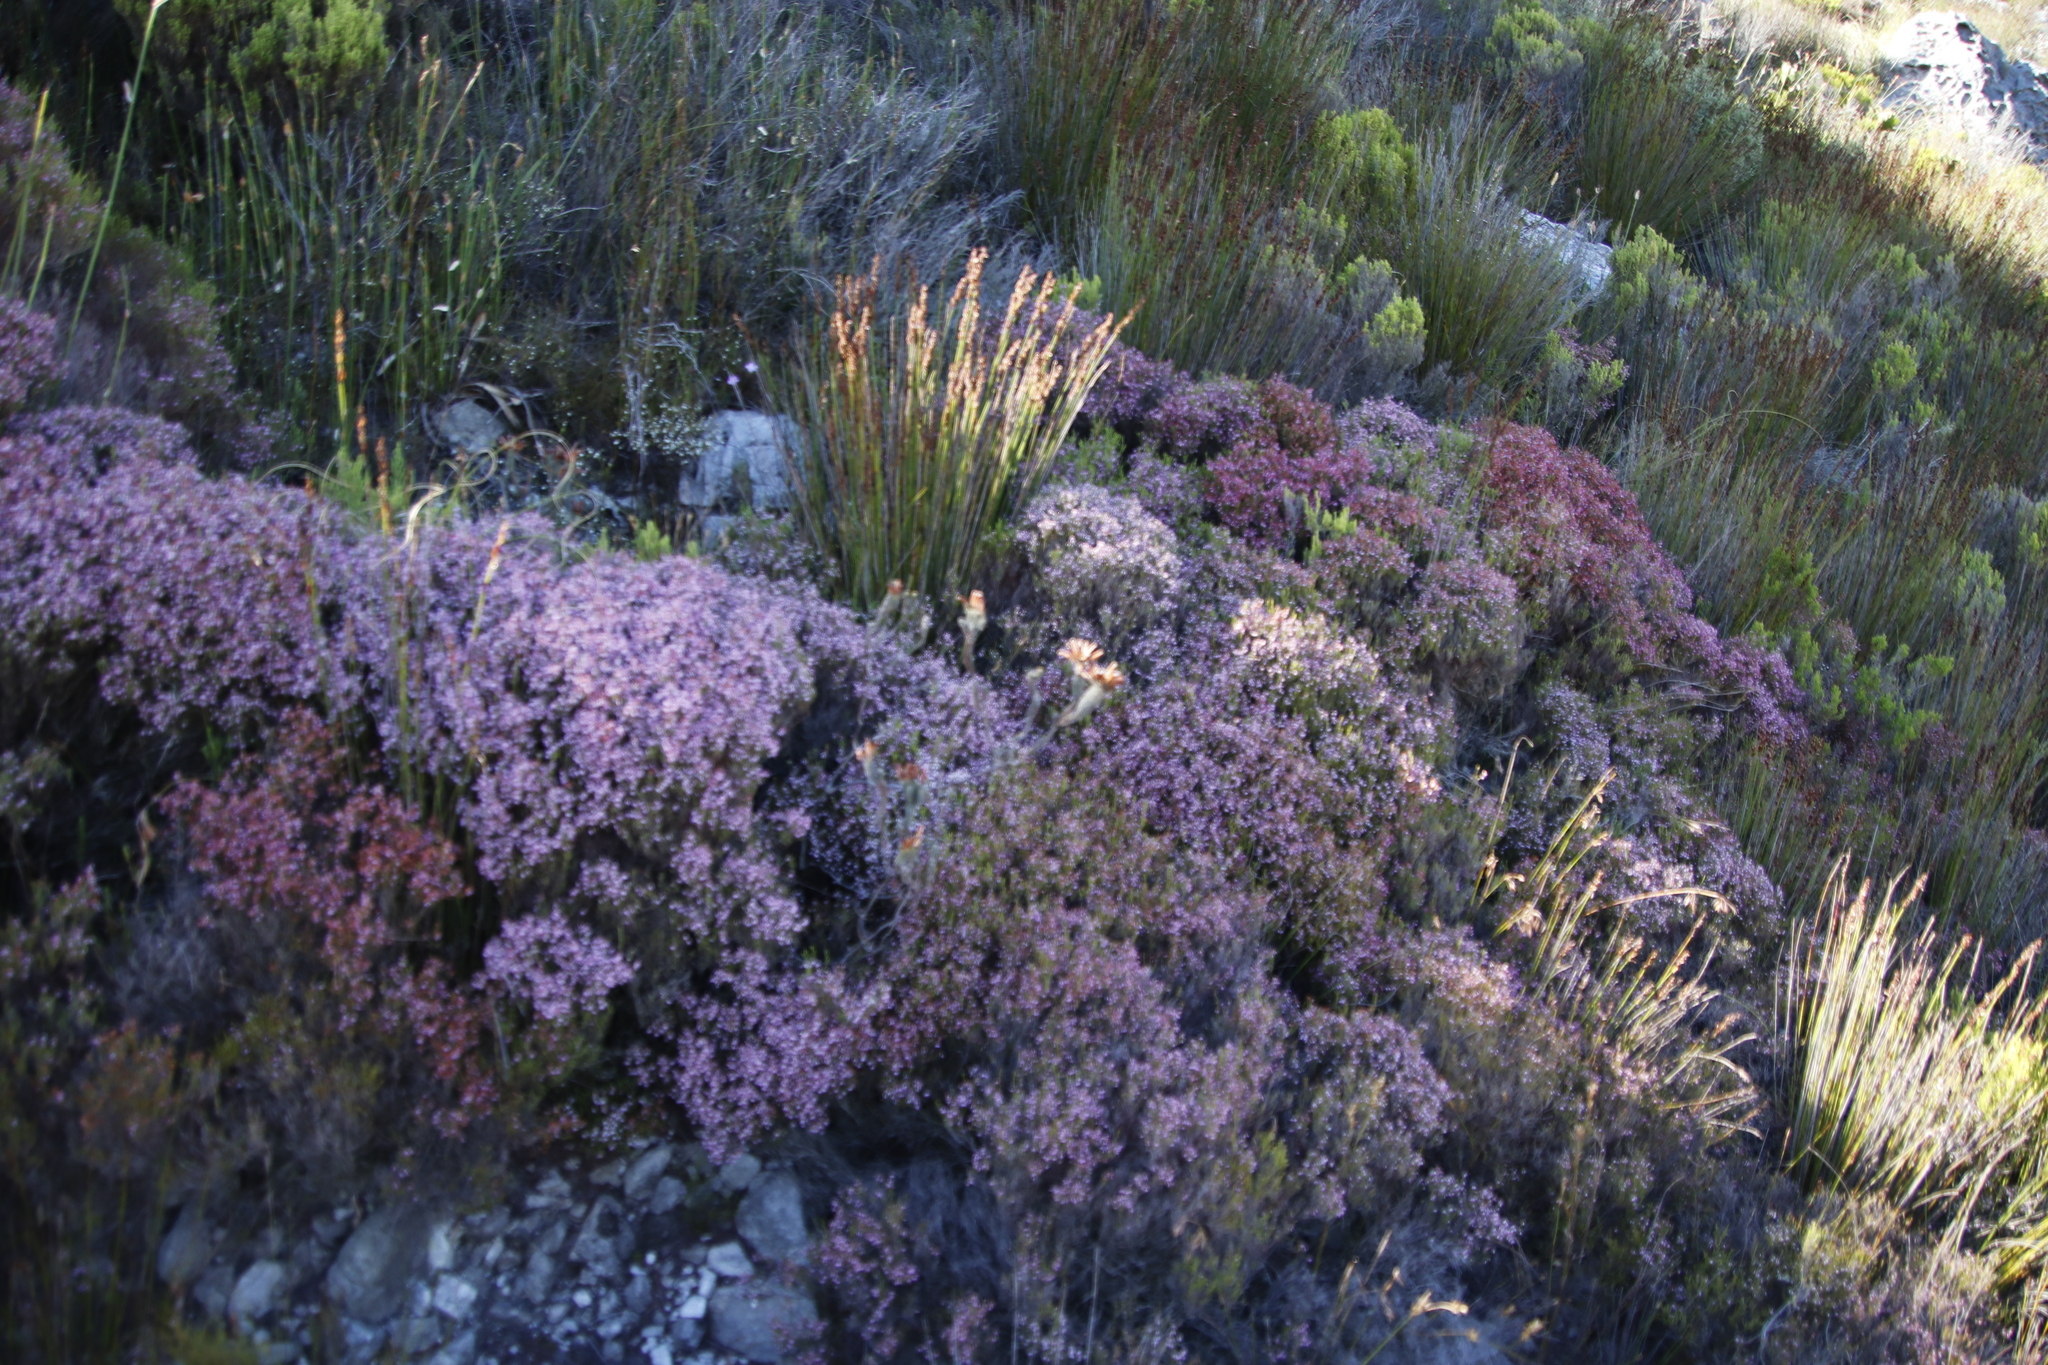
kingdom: Plantae
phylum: Tracheophyta
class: Magnoliopsida
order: Ericales
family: Ericaceae
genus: Erica
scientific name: Erica equisetifolia
